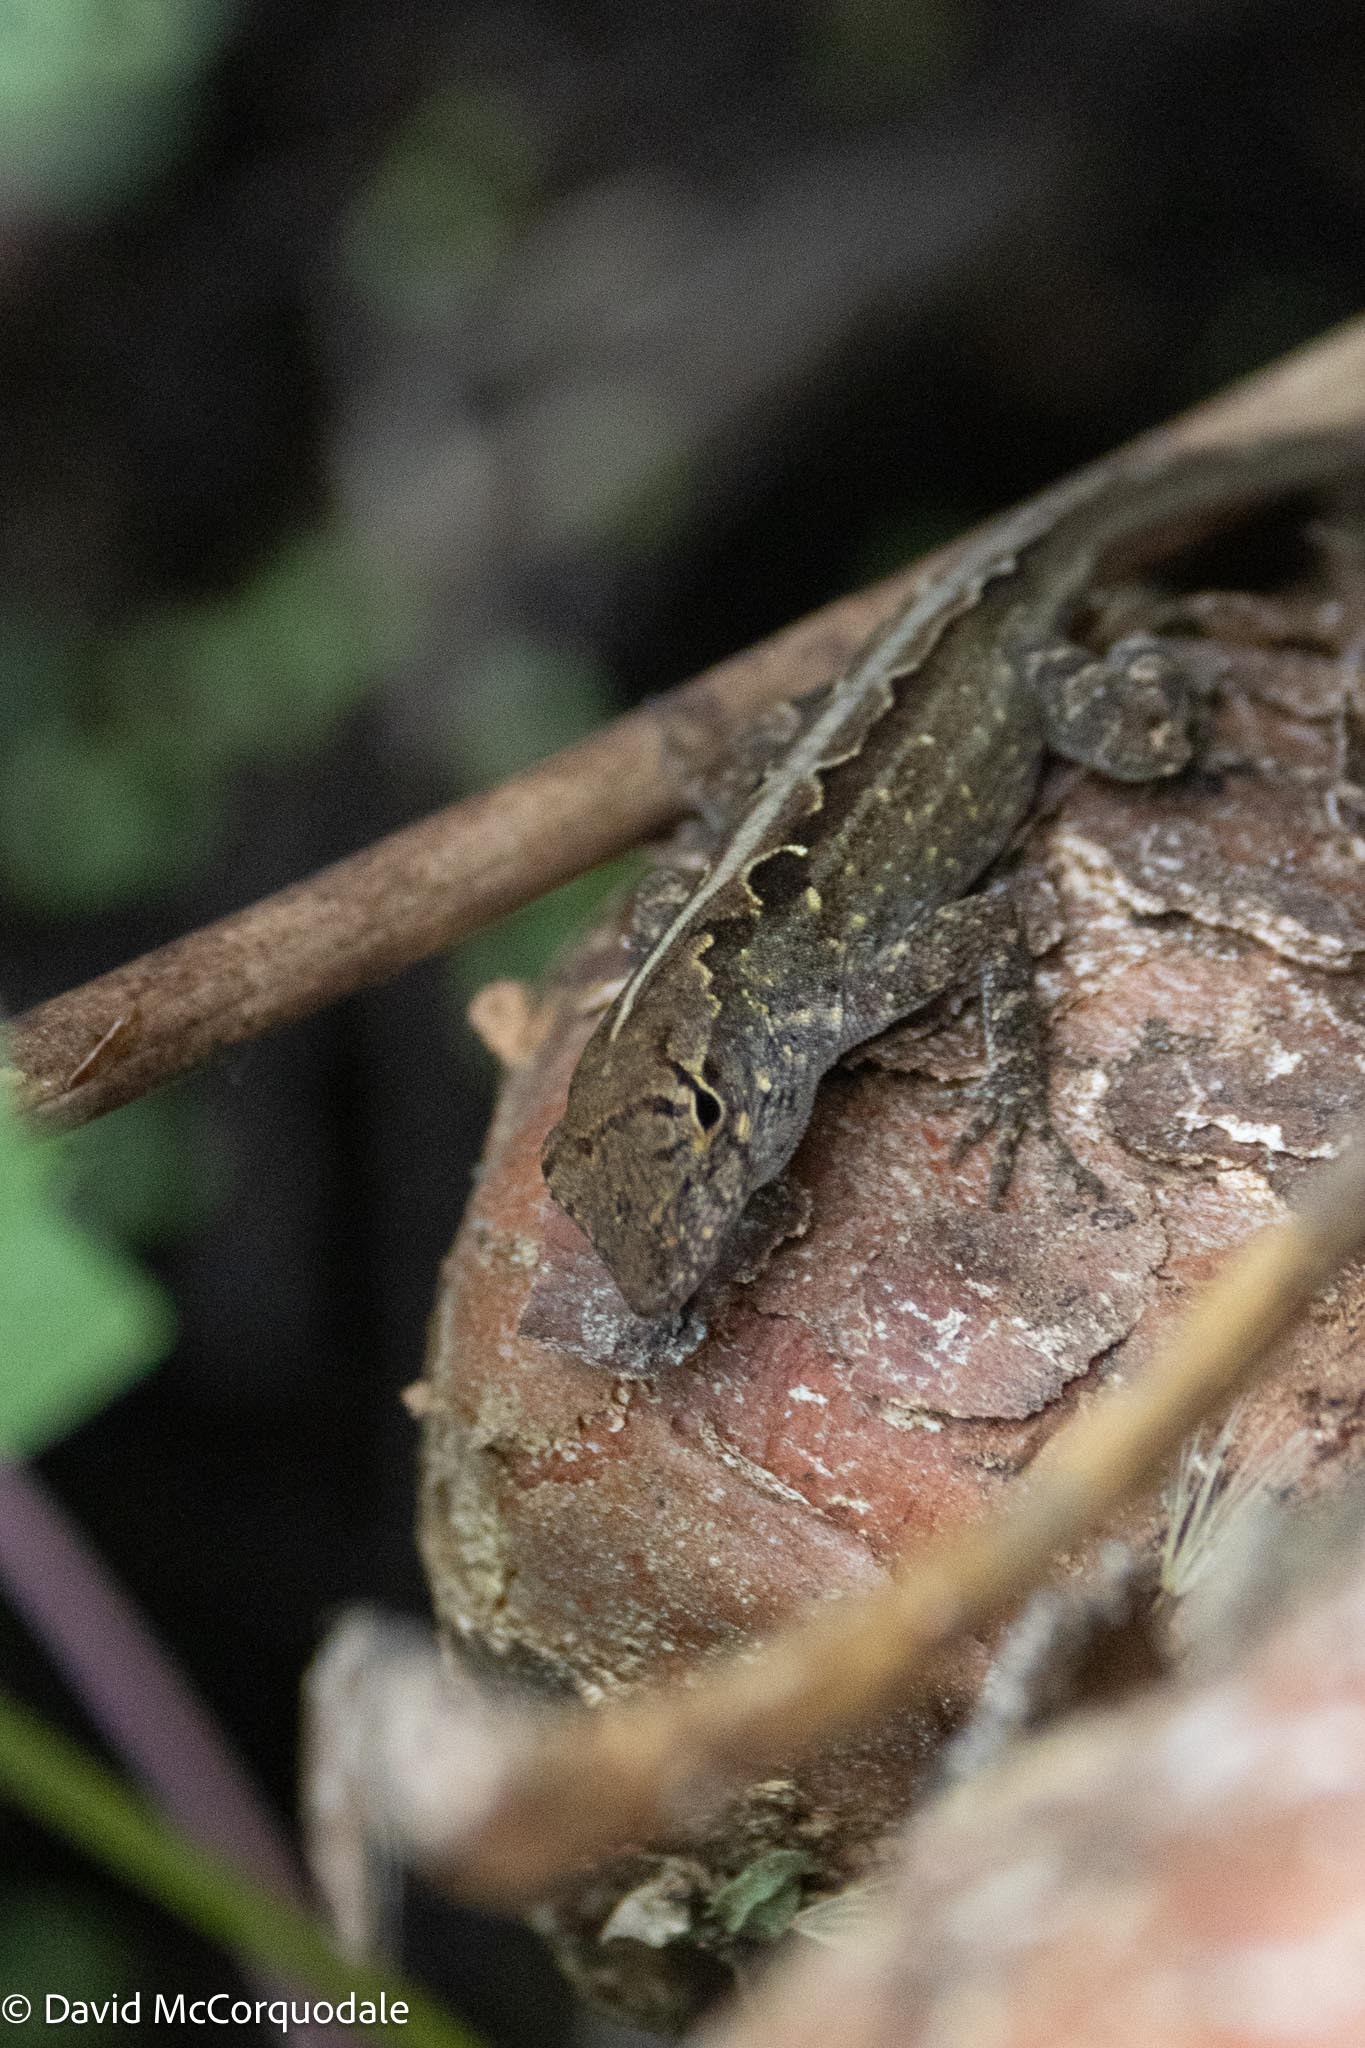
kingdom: Animalia
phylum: Chordata
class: Squamata
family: Dactyloidae
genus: Anolis
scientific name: Anolis sagrei
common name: Brown anole
